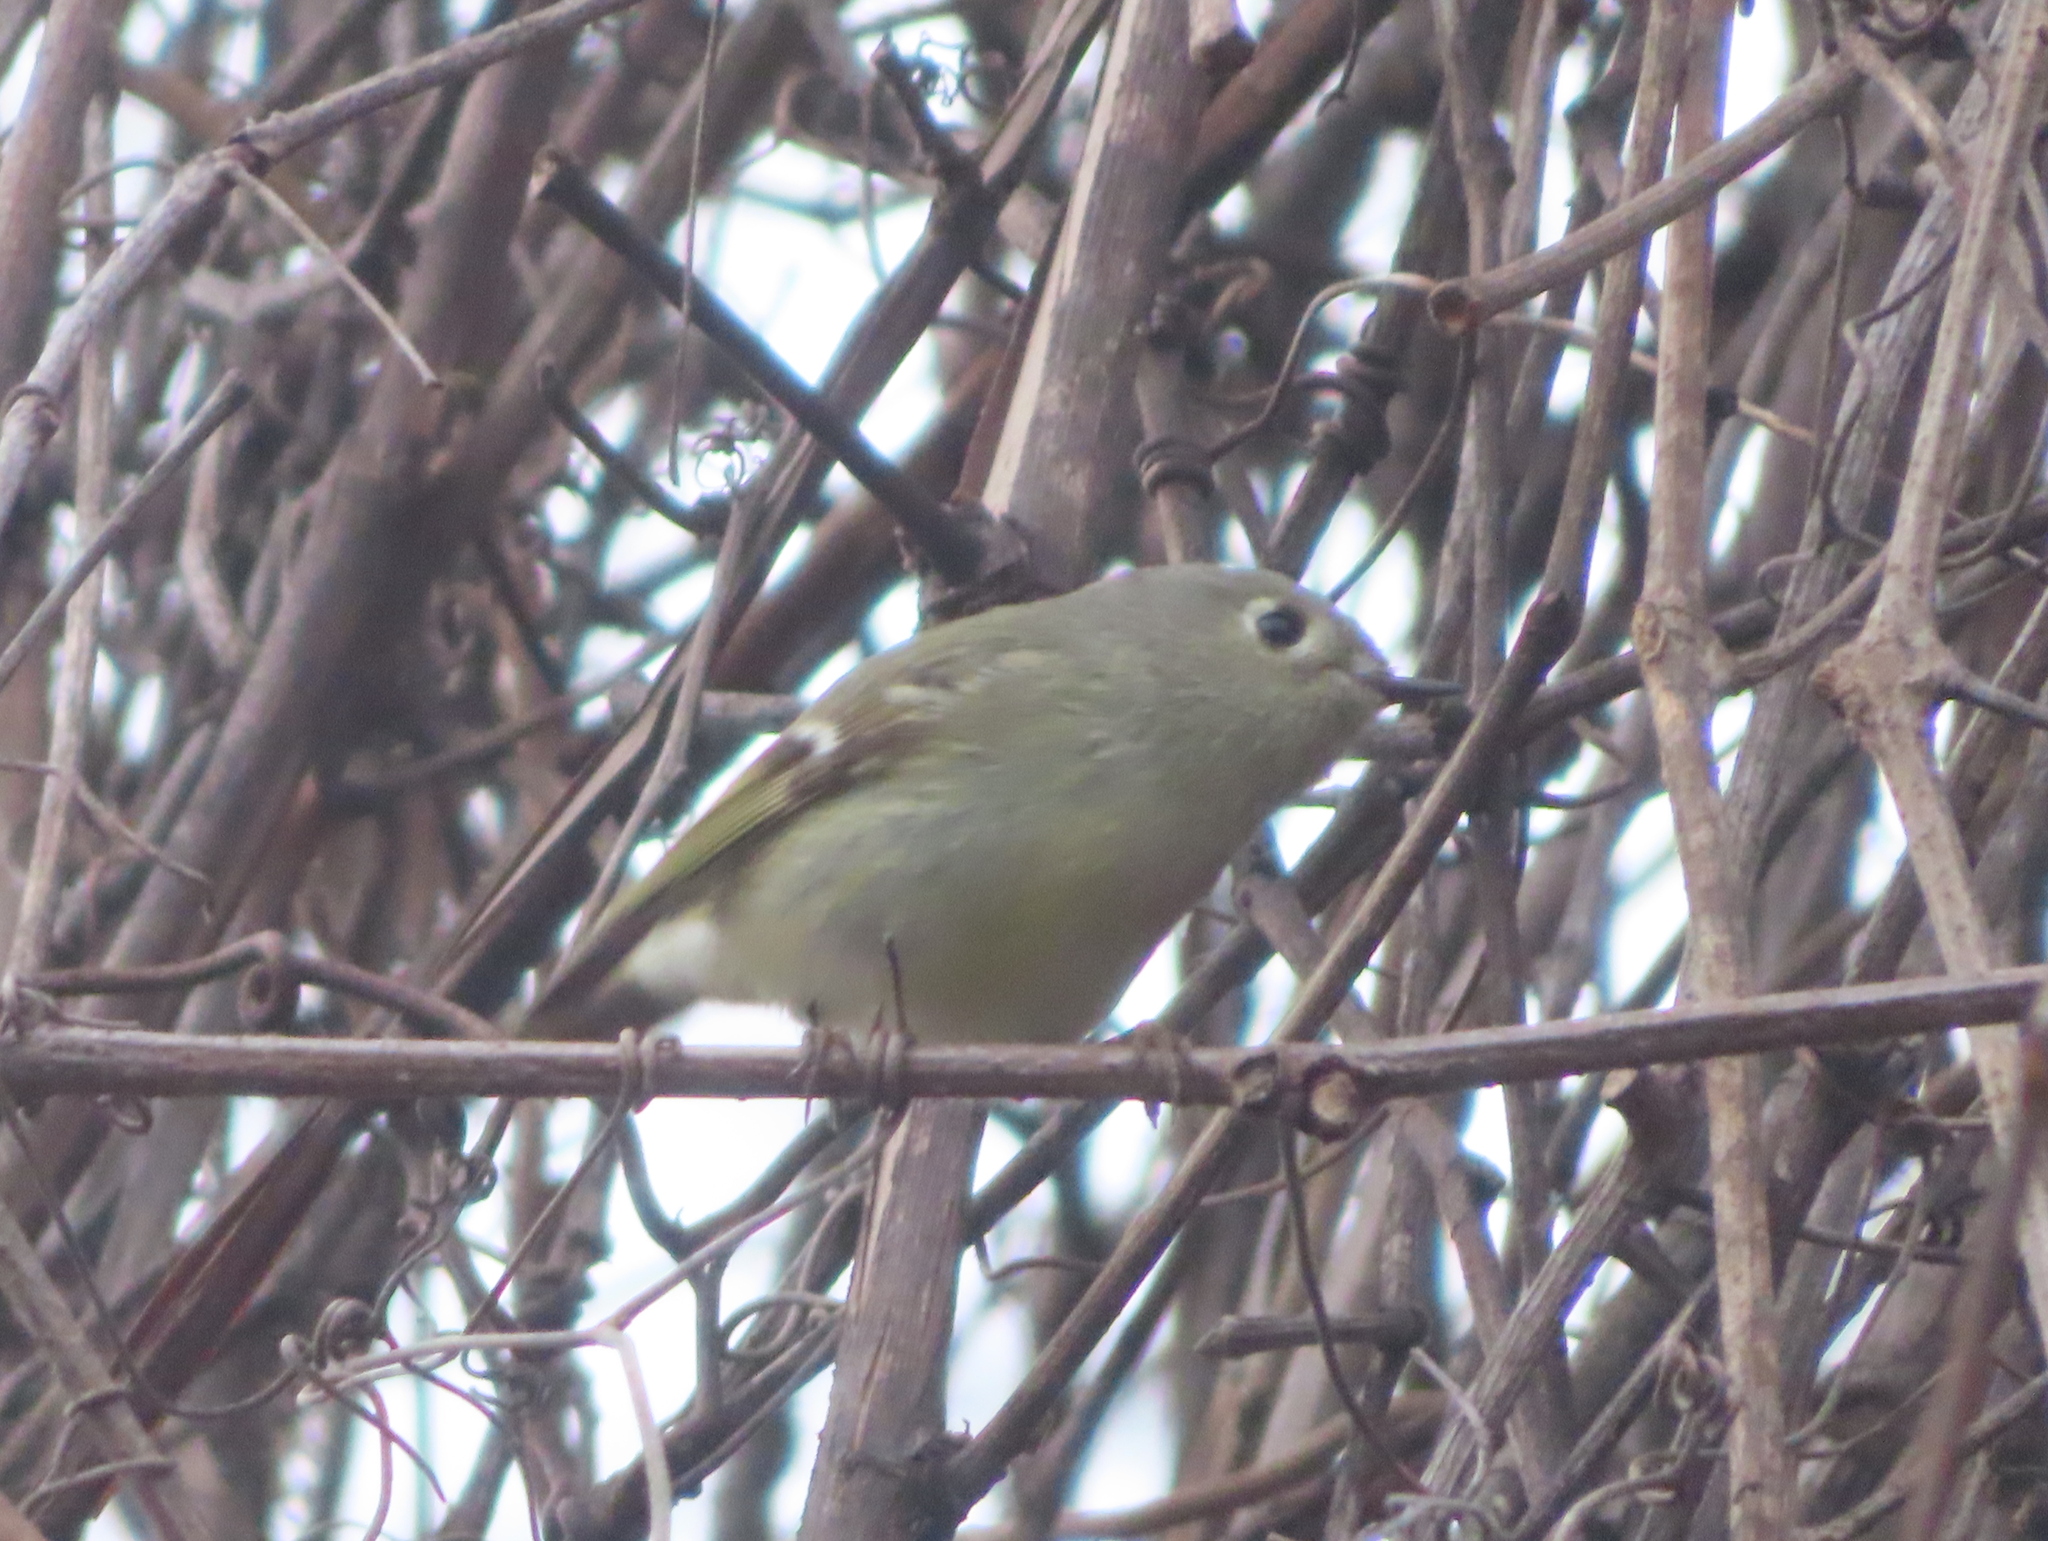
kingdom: Animalia
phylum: Chordata
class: Aves
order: Passeriformes
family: Regulidae
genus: Regulus
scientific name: Regulus calendula
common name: Ruby-crowned kinglet
